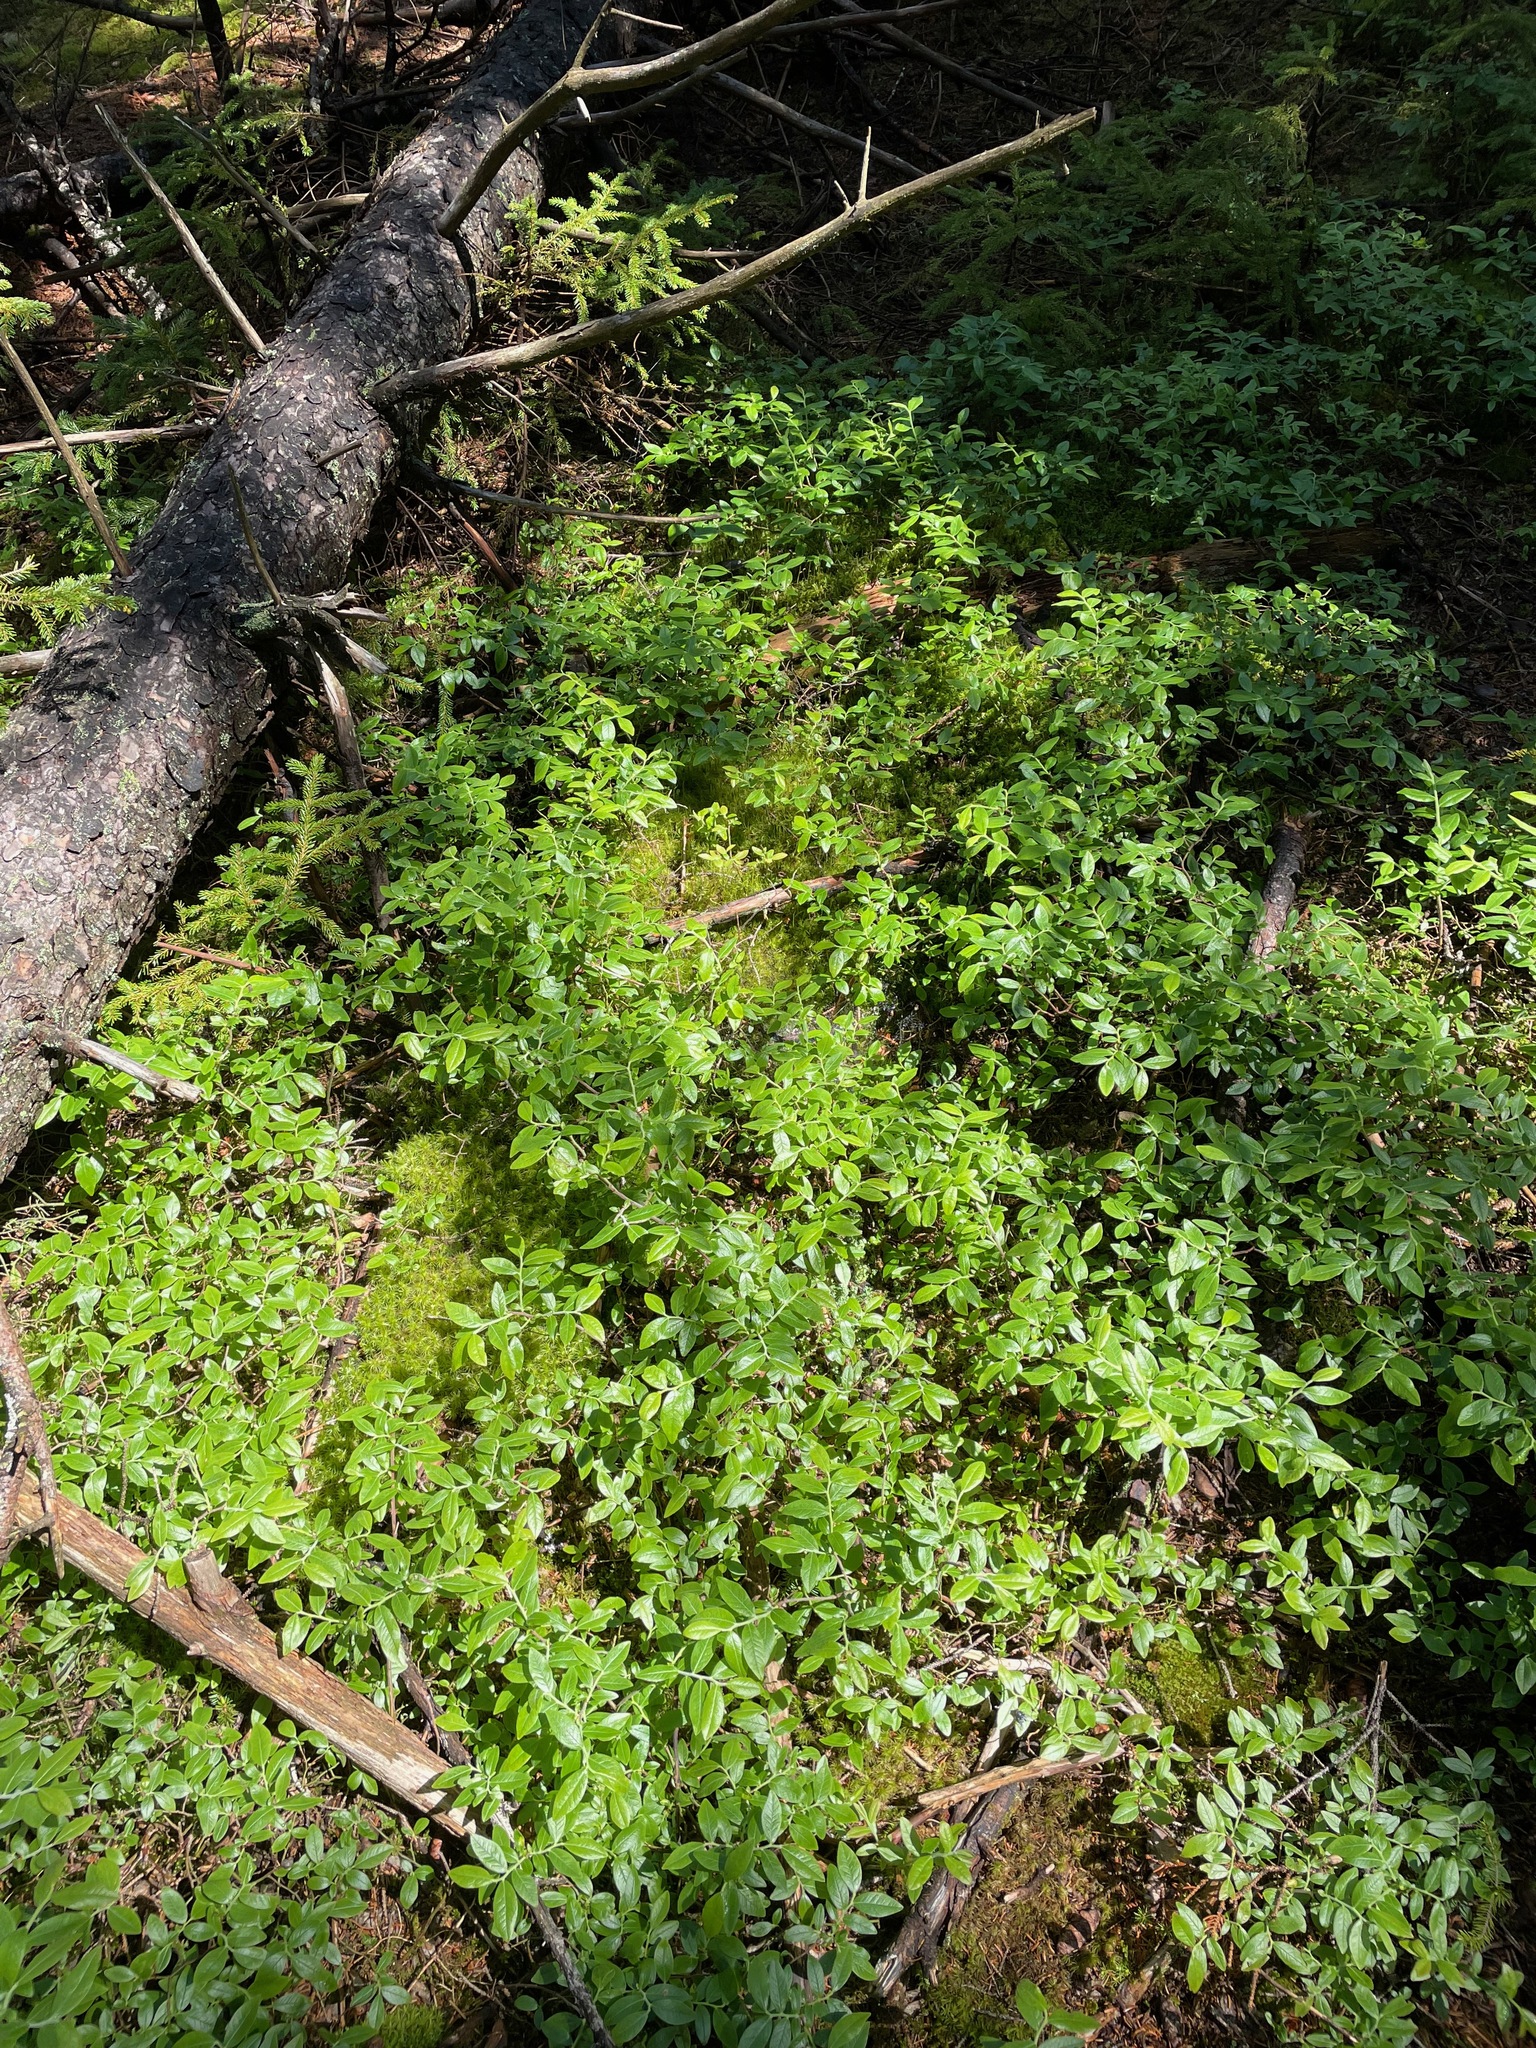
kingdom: Plantae
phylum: Tracheophyta
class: Magnoliopsida
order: Ericales
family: Ericaceae
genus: Vaccinium
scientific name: Vaccinium myrtilloides
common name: Canada blueberry
